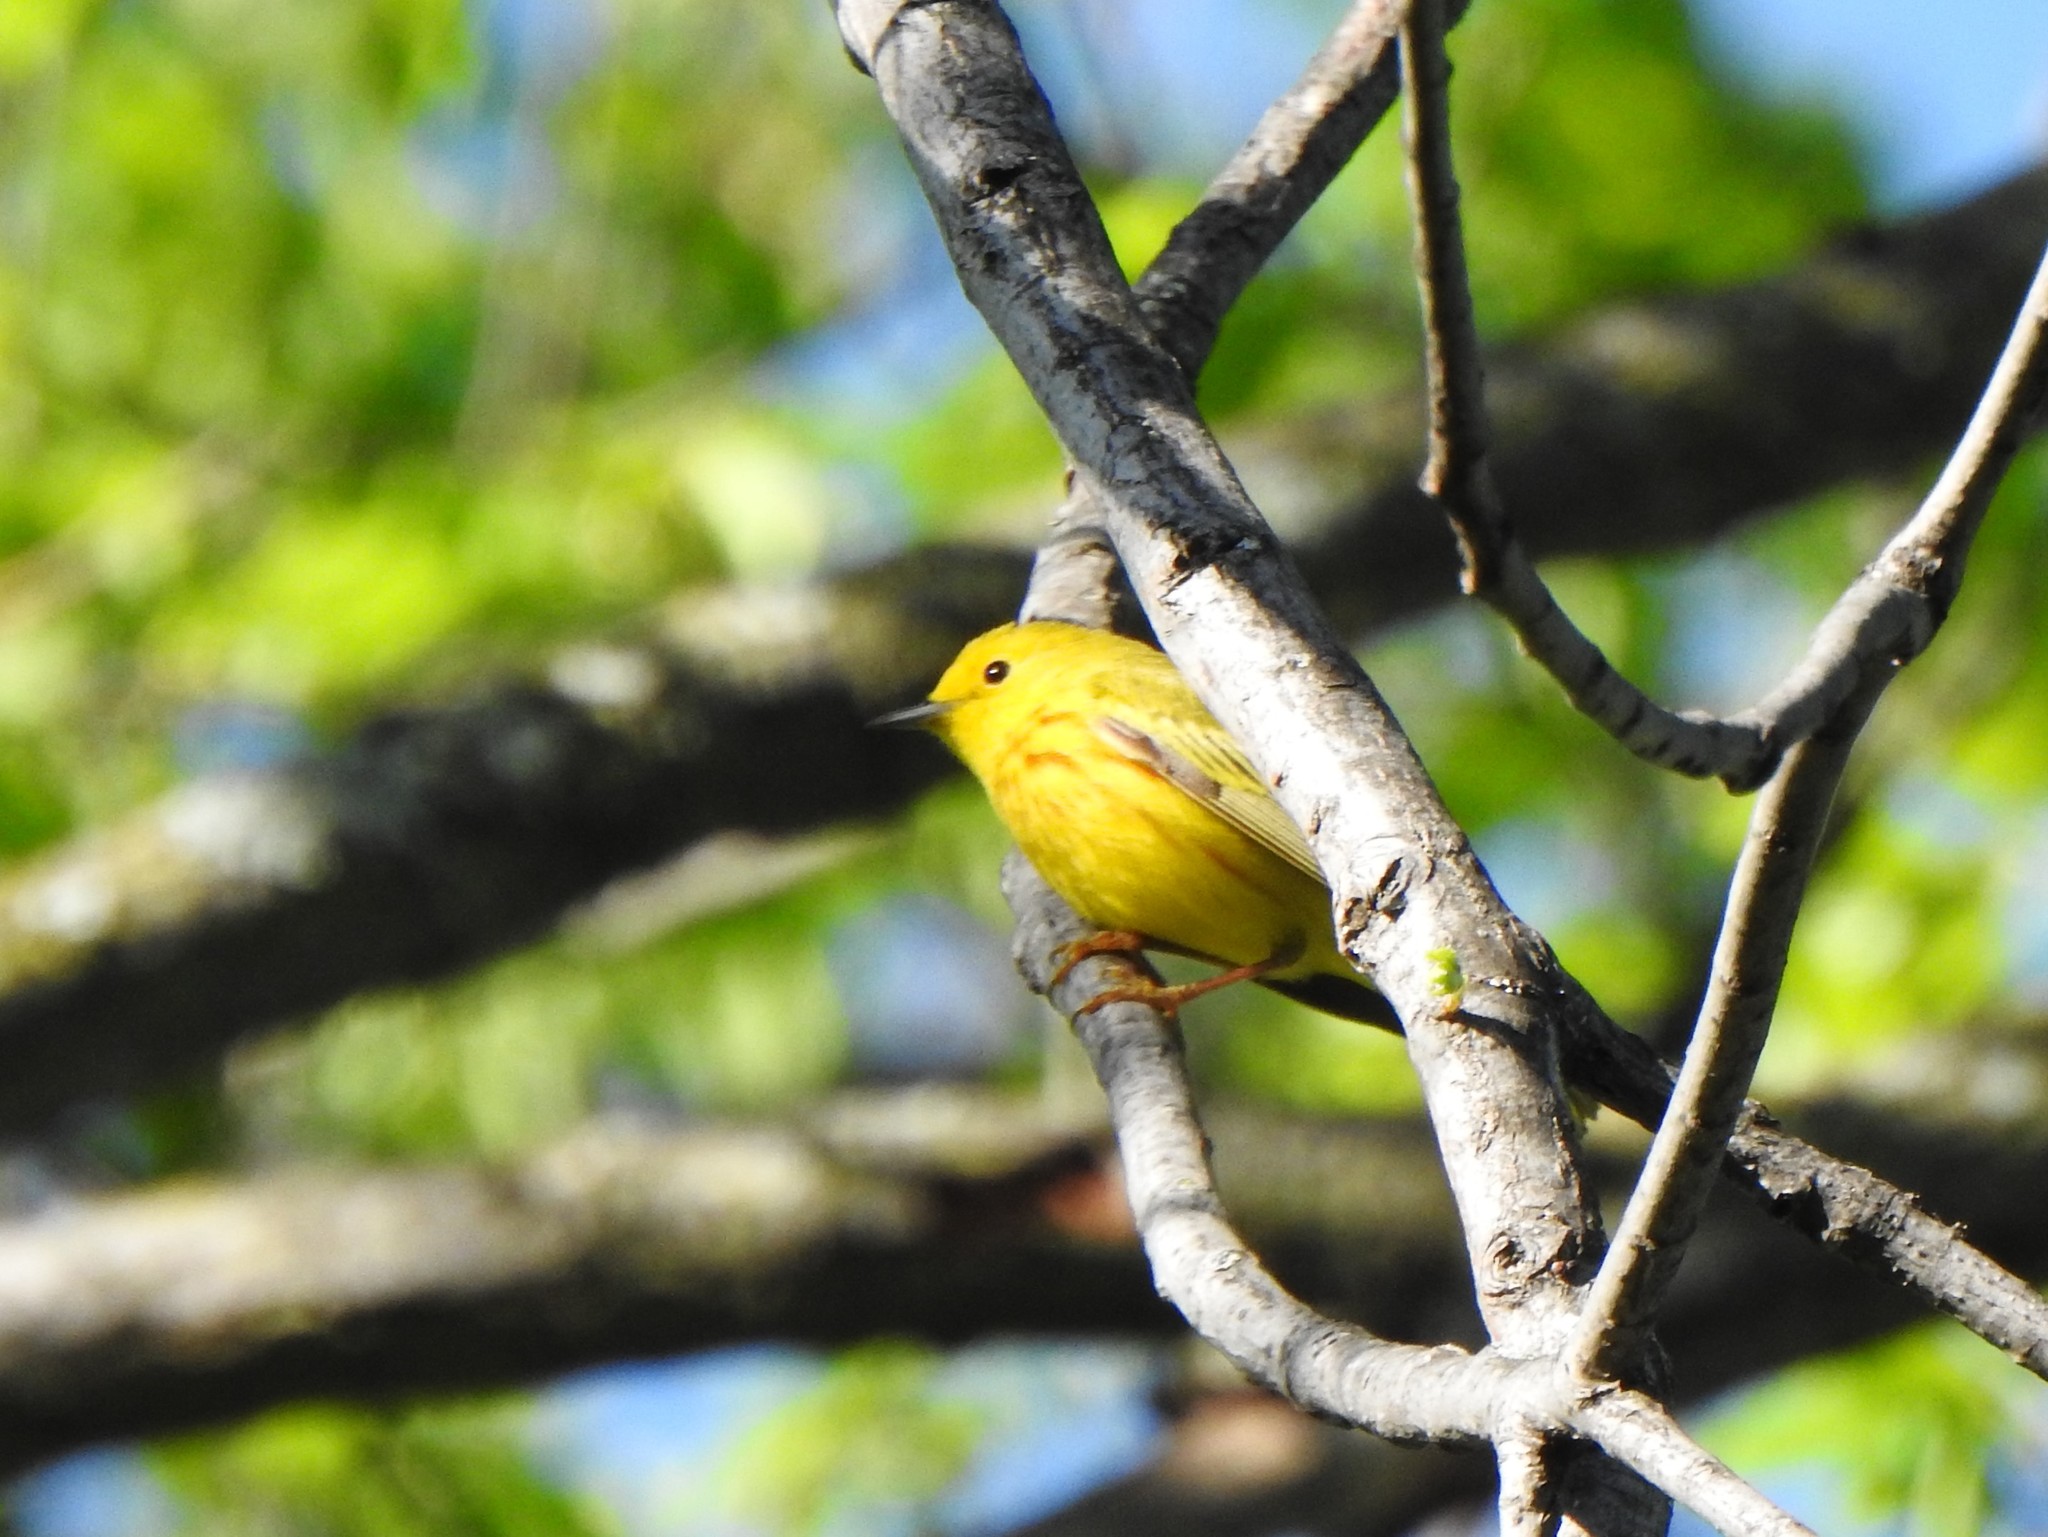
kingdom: Animalia
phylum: Chordata
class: Aves
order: Passeriformes
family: Parulidae
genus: Setophaga
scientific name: Setophaga petechia
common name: Yellow warbler
